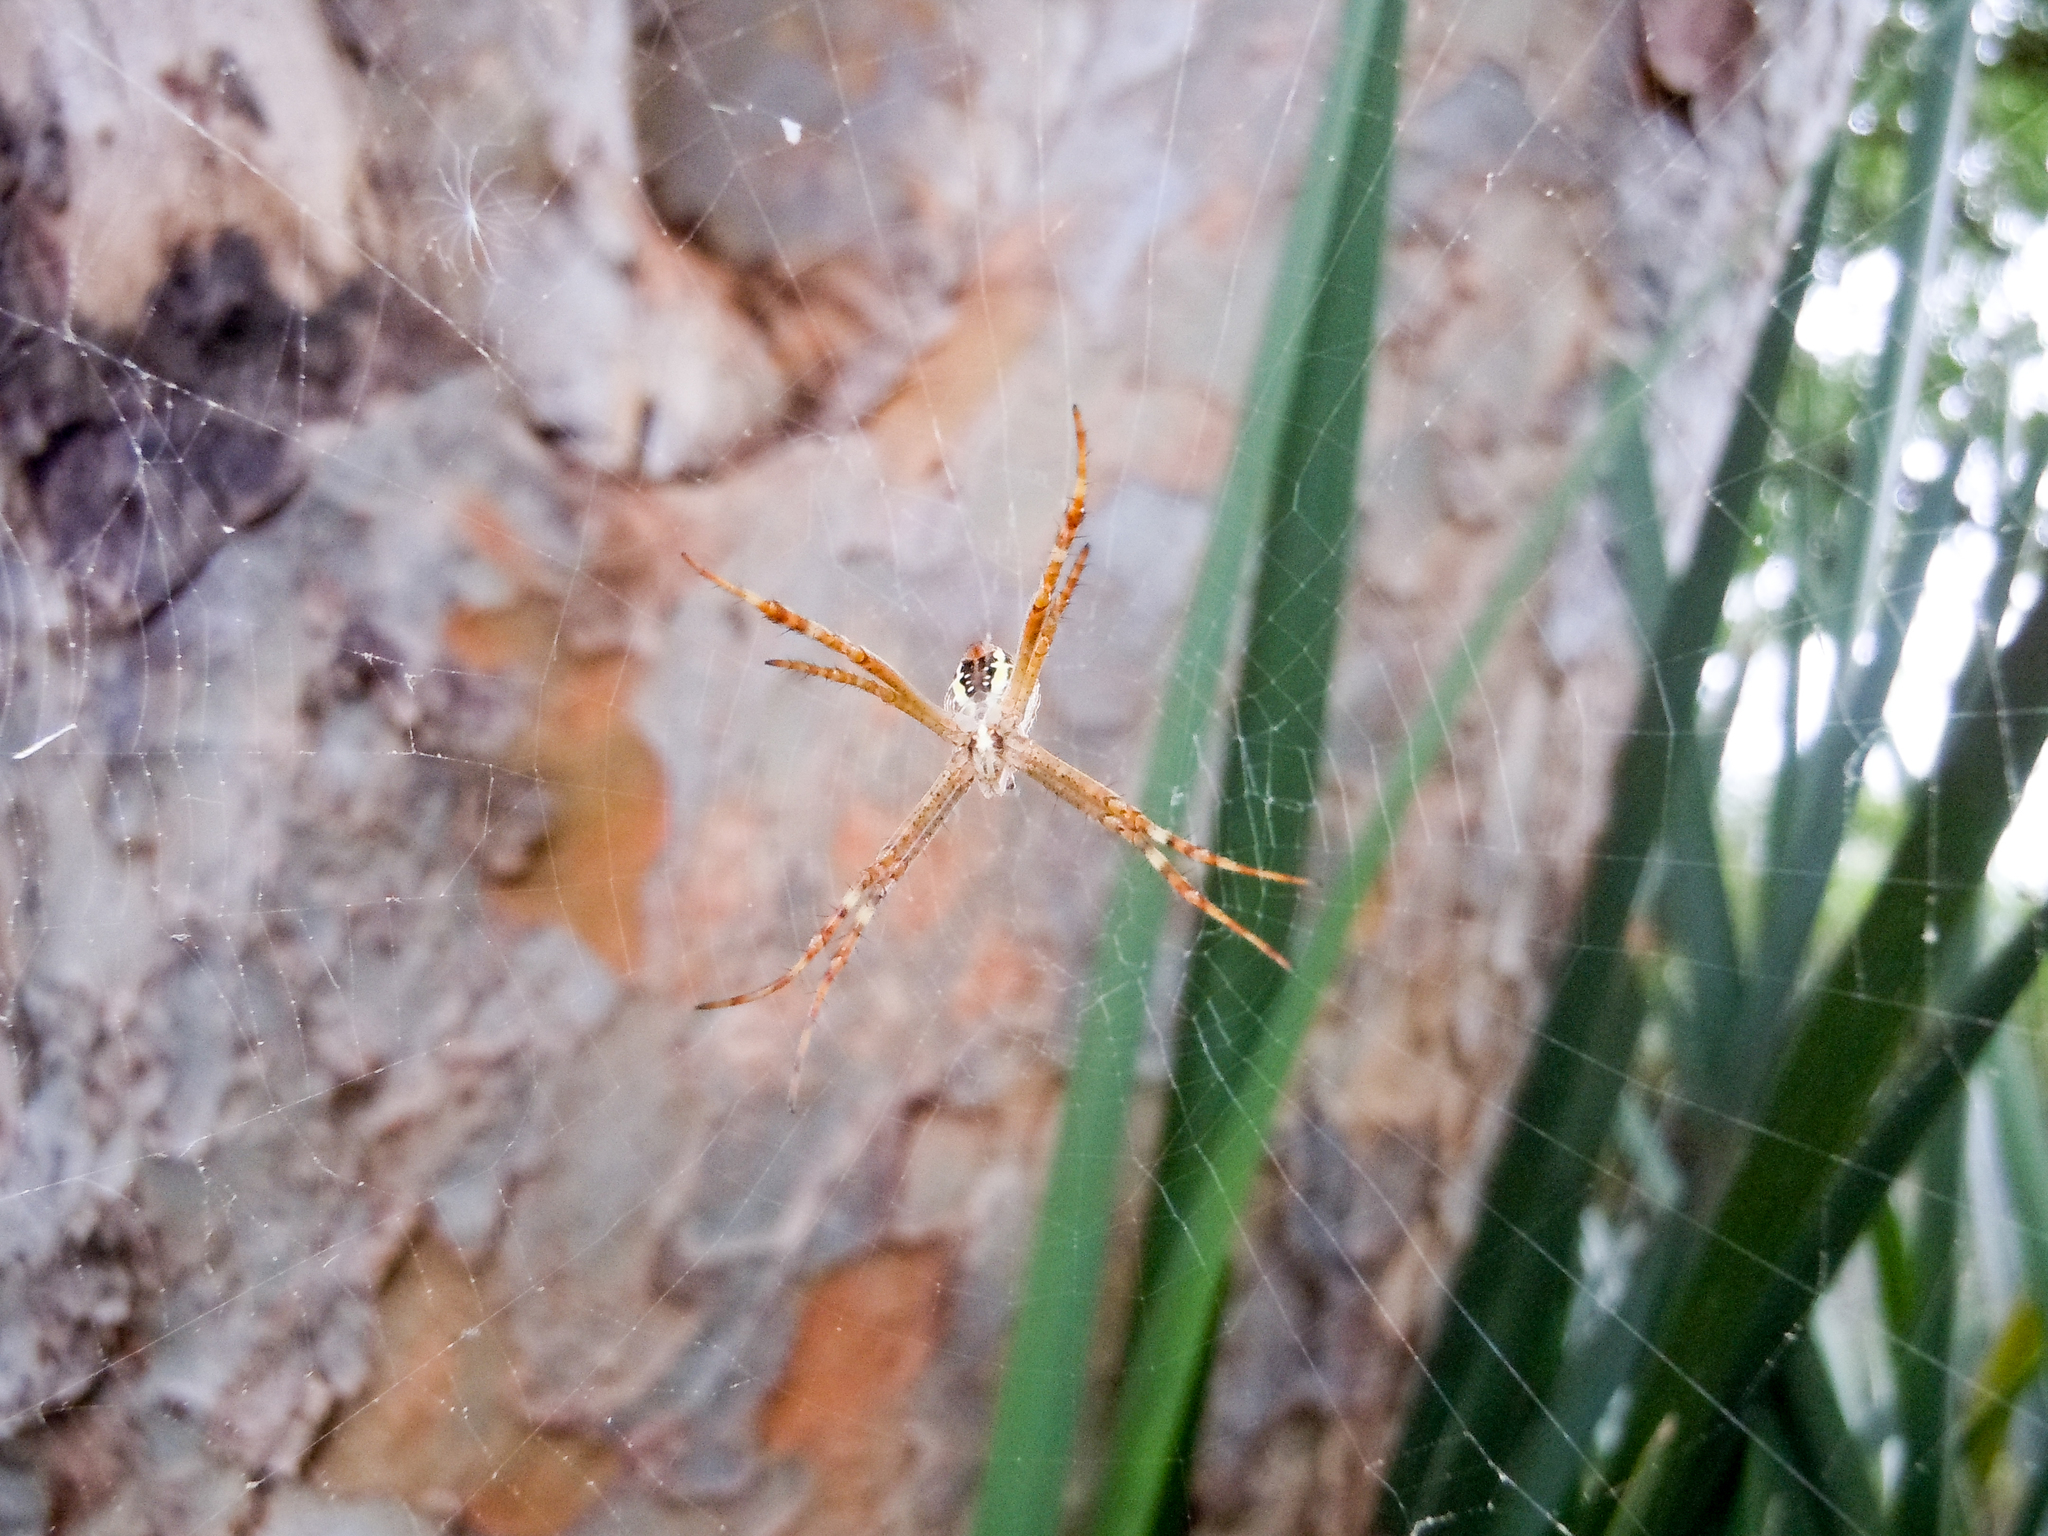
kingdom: Animalia
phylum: Arthropoda
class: Arachnida
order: Araneae
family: Araneidae
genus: Argiope
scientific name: Argiope keyserlingi
